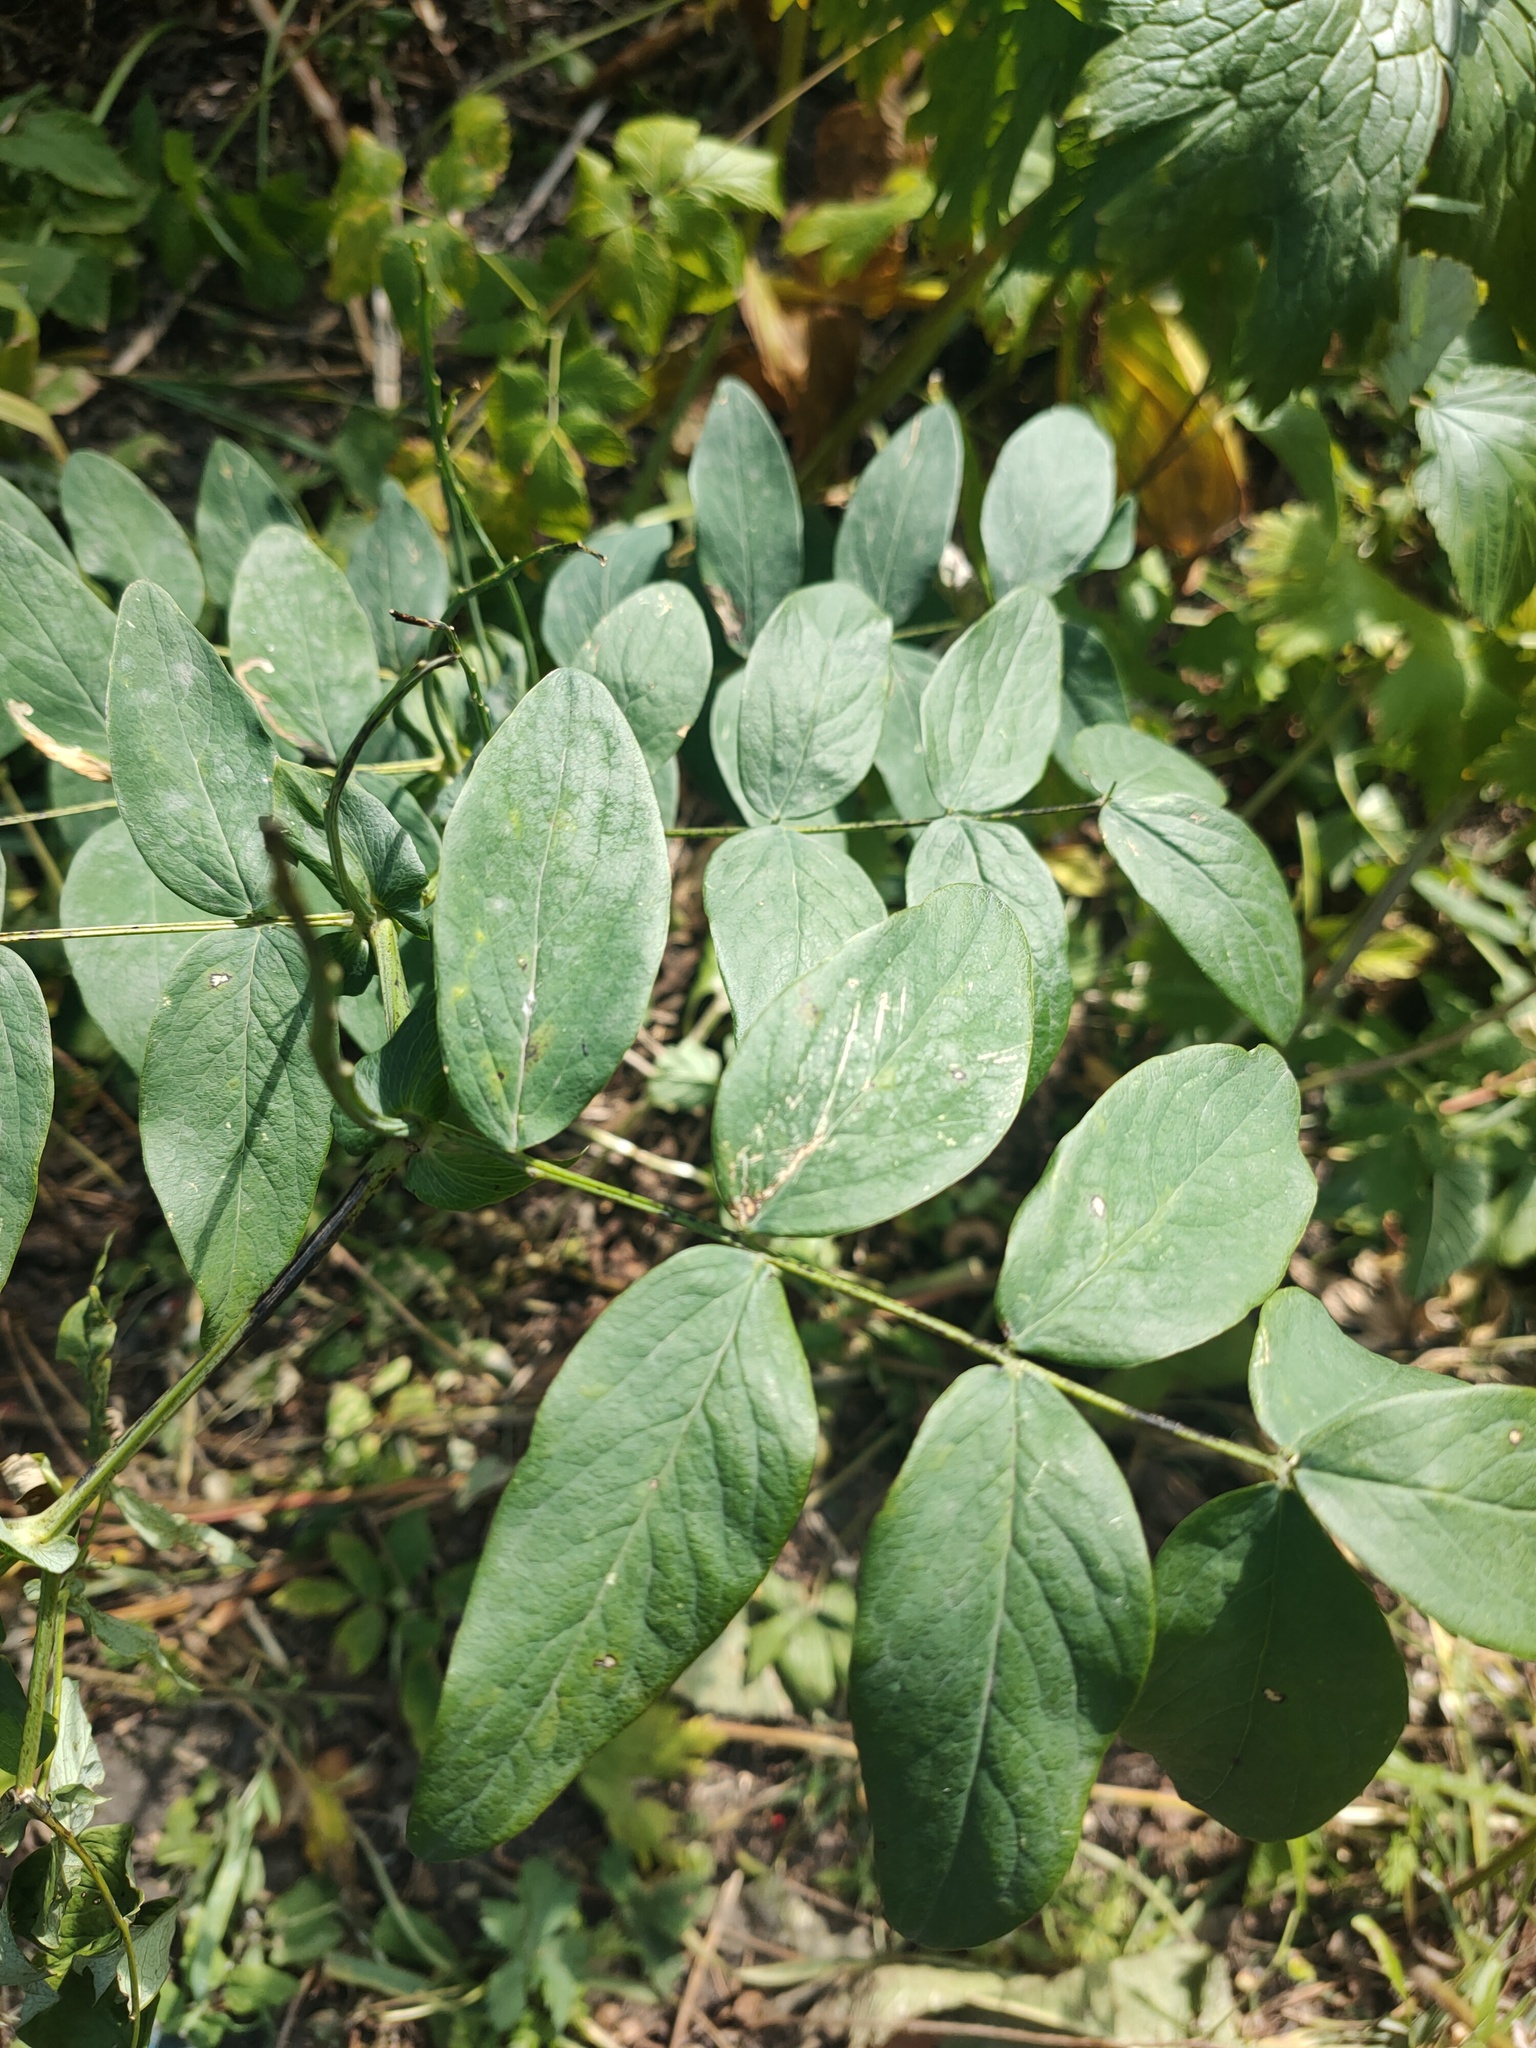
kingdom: Plantae
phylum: Tracheophyta
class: Magnoliopsida
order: Fabales
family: Fabaceae
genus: Lathyrus
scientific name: Lathyrus gmelinii
